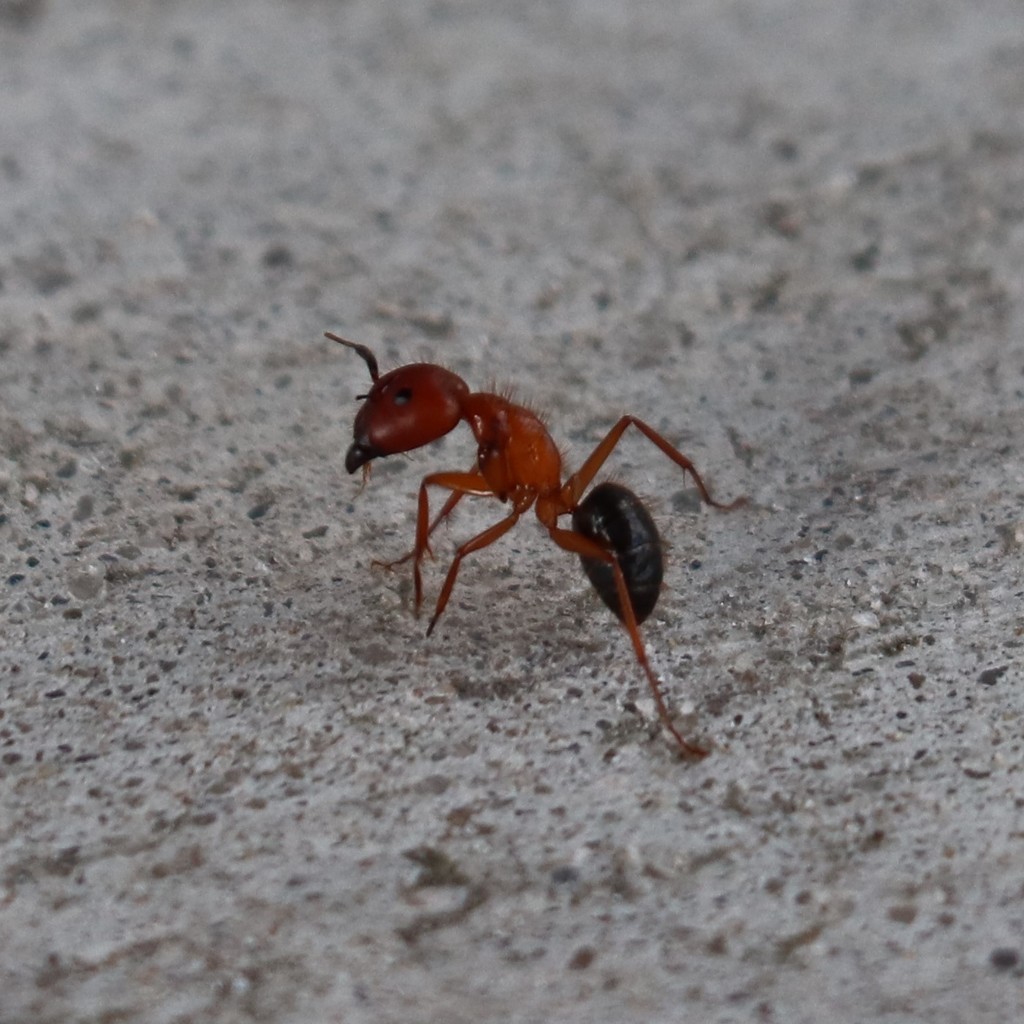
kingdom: Animalia
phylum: Arthropoda
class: Insecta
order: Hymenoptera
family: Formicidae
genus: Camponotus
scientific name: Camponotus floridanus
